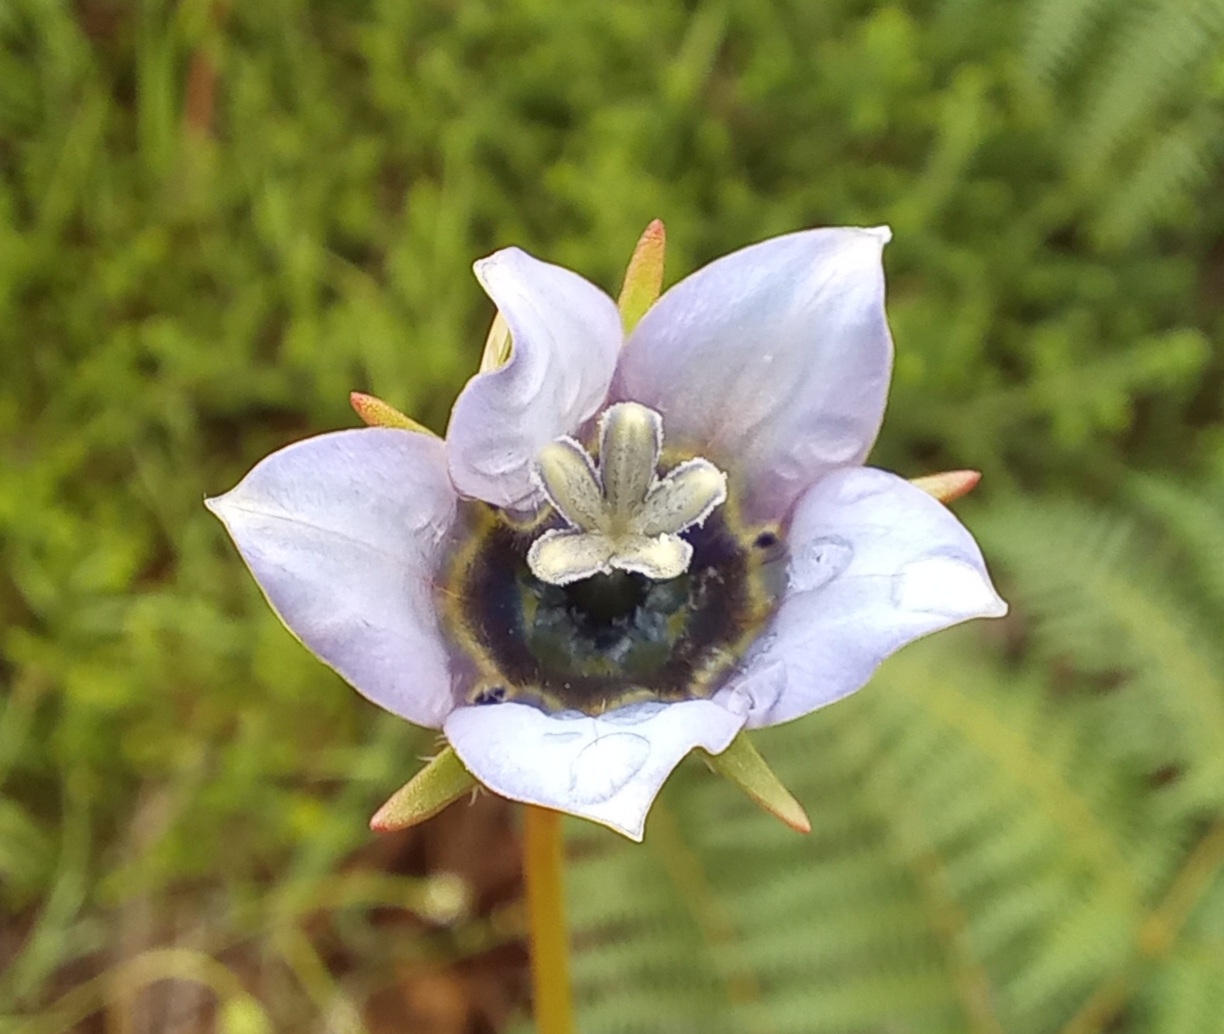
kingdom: Plantae
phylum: Tracheophyta
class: Magnoliopsida
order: Asterales
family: Campanulaceae
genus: Wahlenbergia
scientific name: Wahlenbergia capensis
